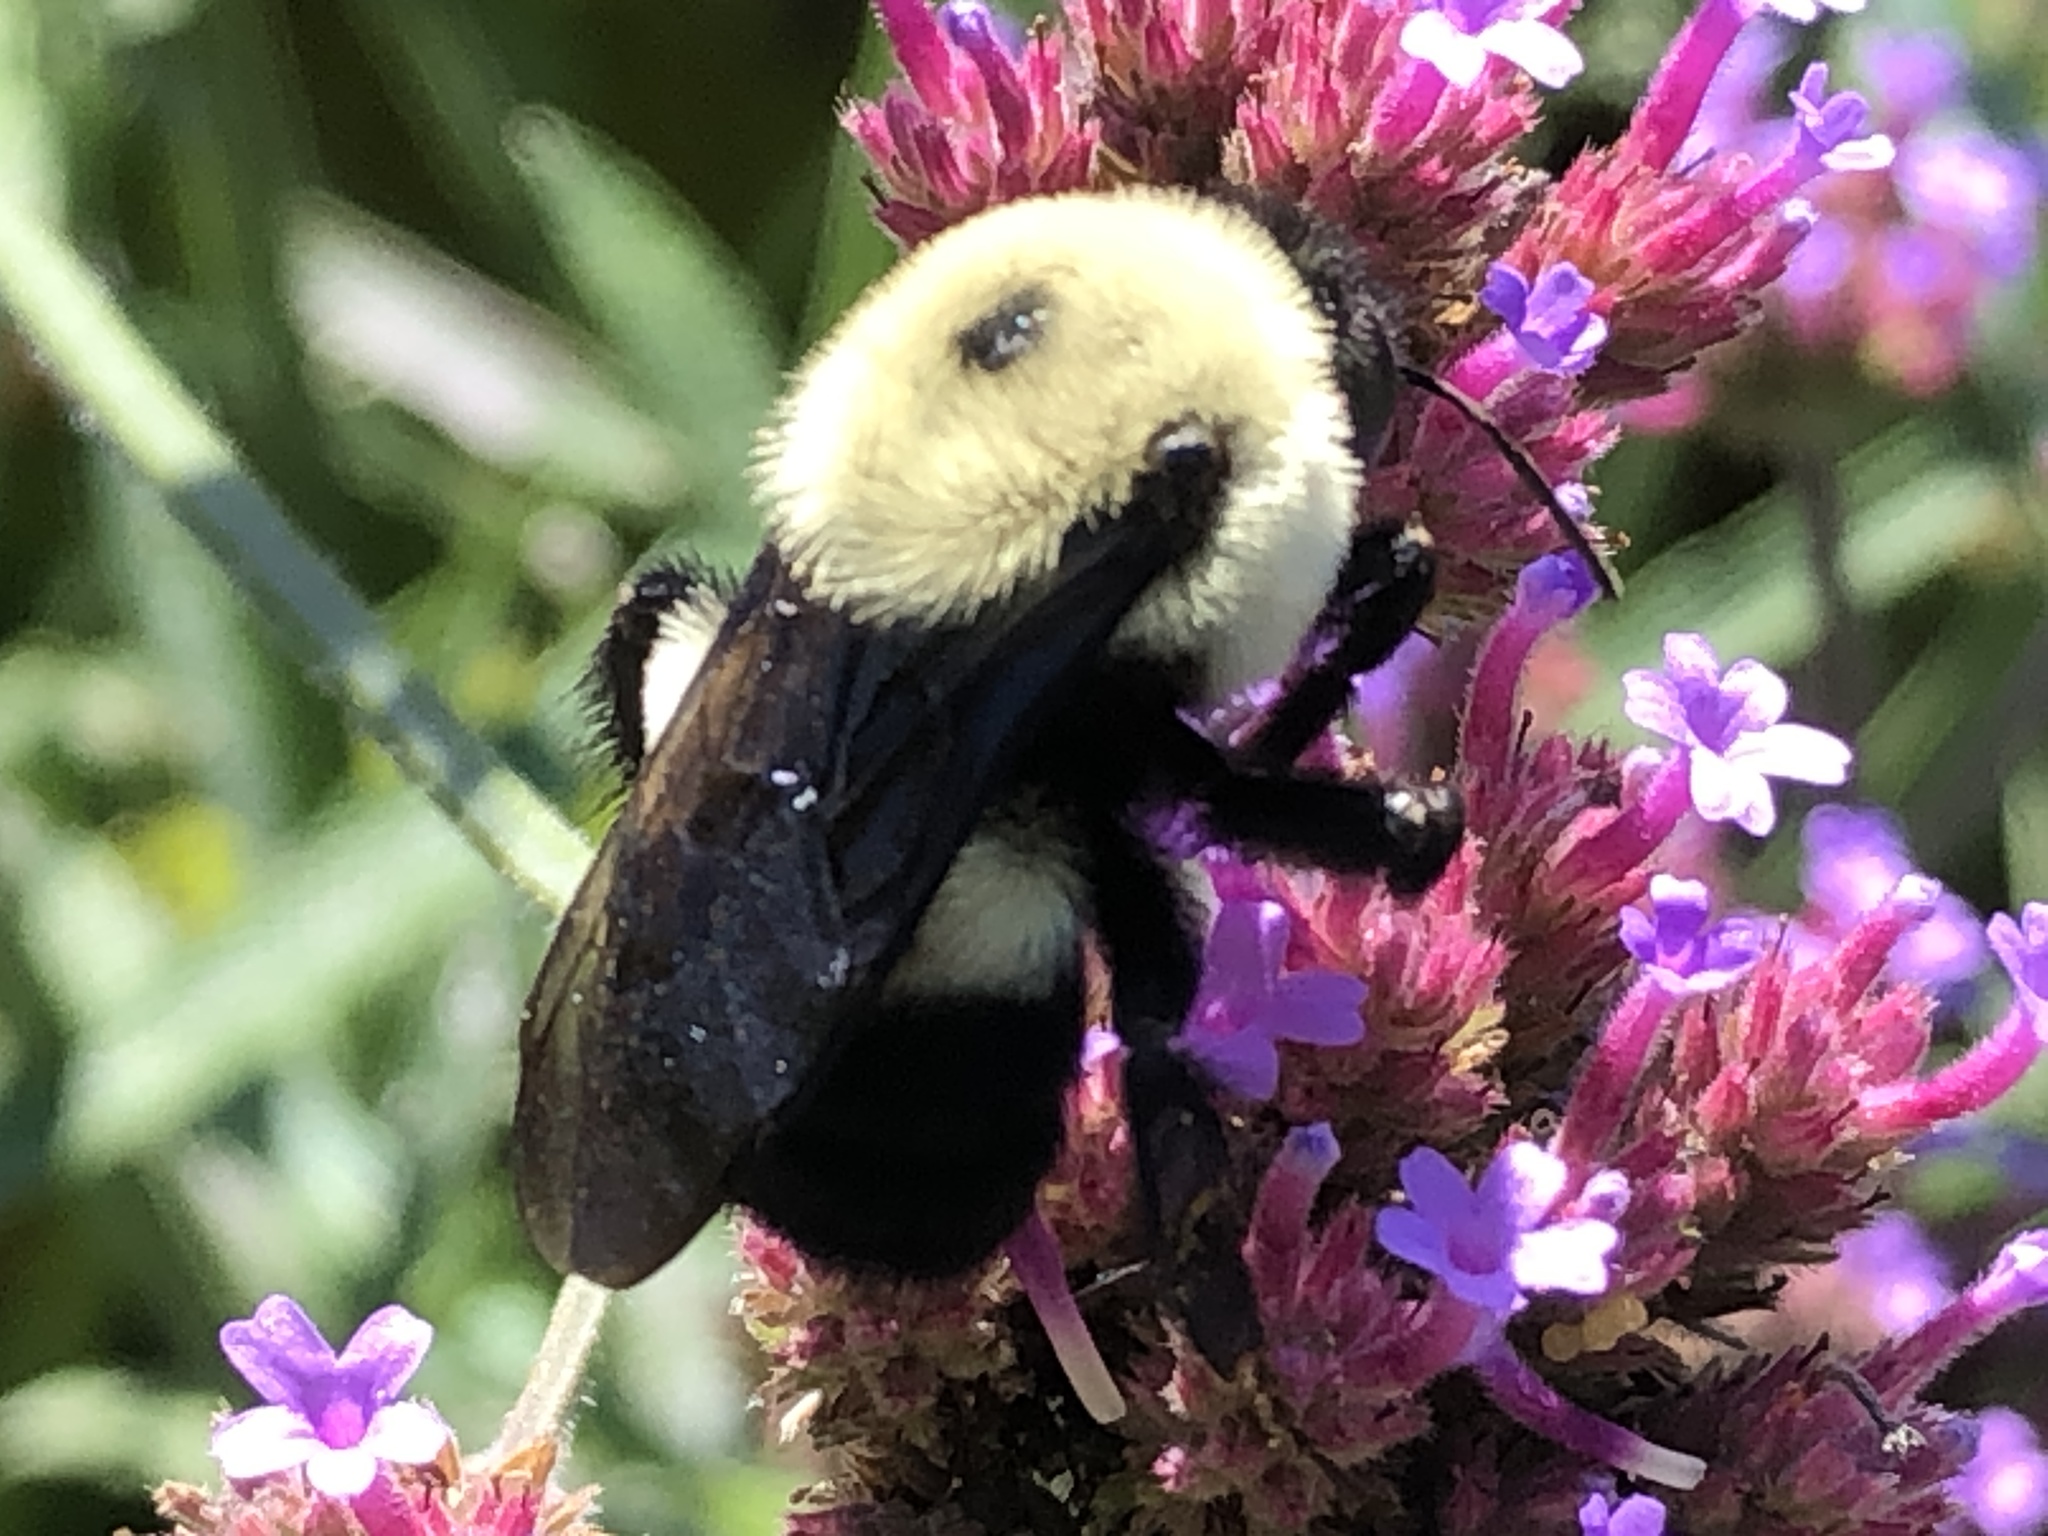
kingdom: Animalia
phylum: Arthropoda
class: Insecta
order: Hymenoptera
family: Apidae
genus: Bombus
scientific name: Bombus griseocollis
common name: Brown-belted bumble bee
